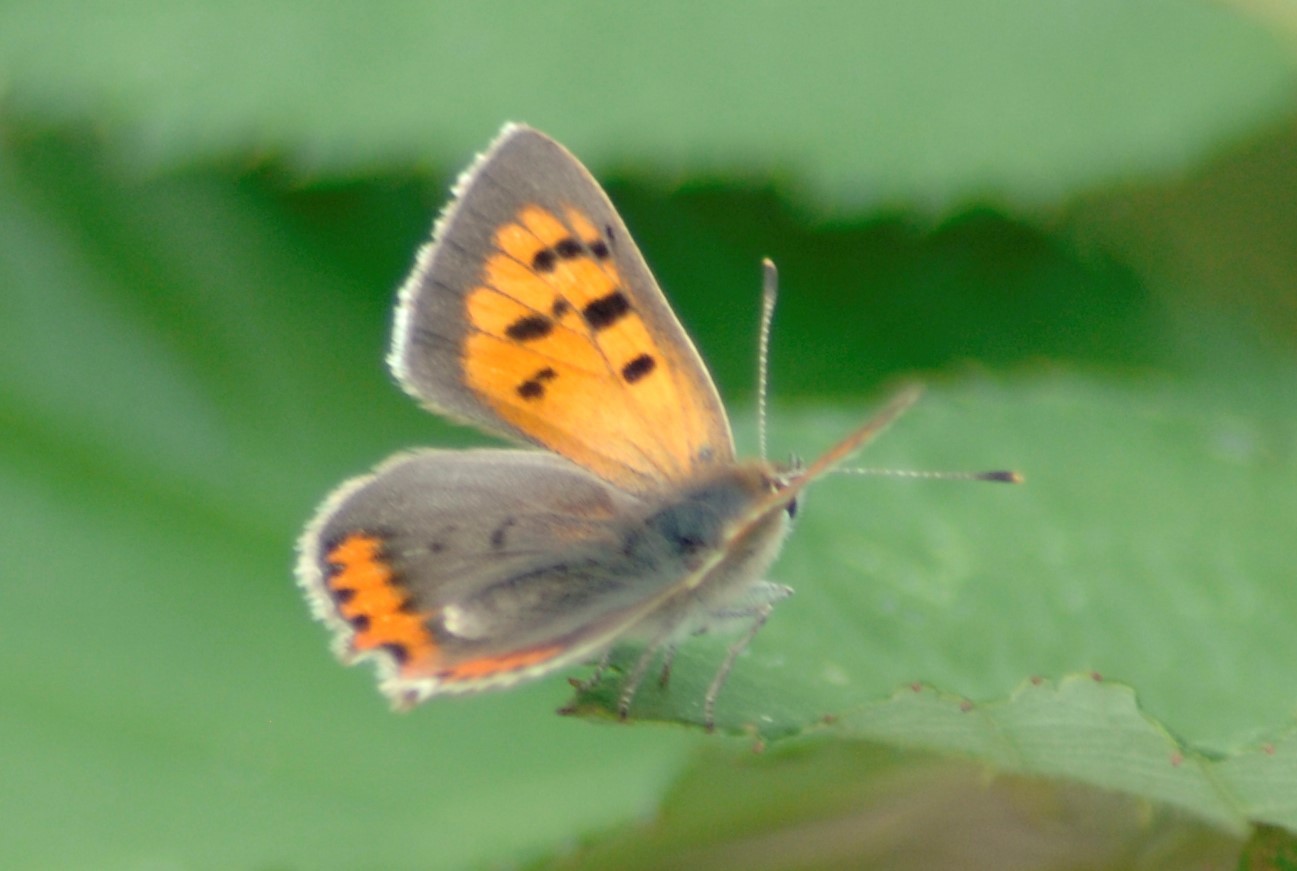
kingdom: Animalia
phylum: Arthropoda
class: Insecta
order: Lepidoptera
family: Lycaenidae
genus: Lycaena
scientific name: Lycaena phlaeas
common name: Small copper
